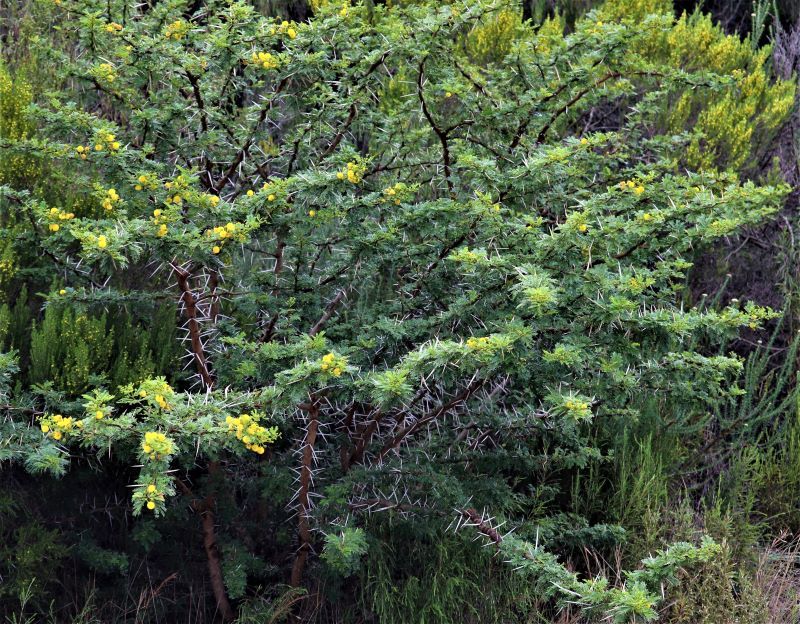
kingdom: Plantae
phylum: Tracheophyta
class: Magnoliopsida
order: Fabales
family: Fabaceae
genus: Vachellia
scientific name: Vachellia karroo
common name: Sweet thorn
